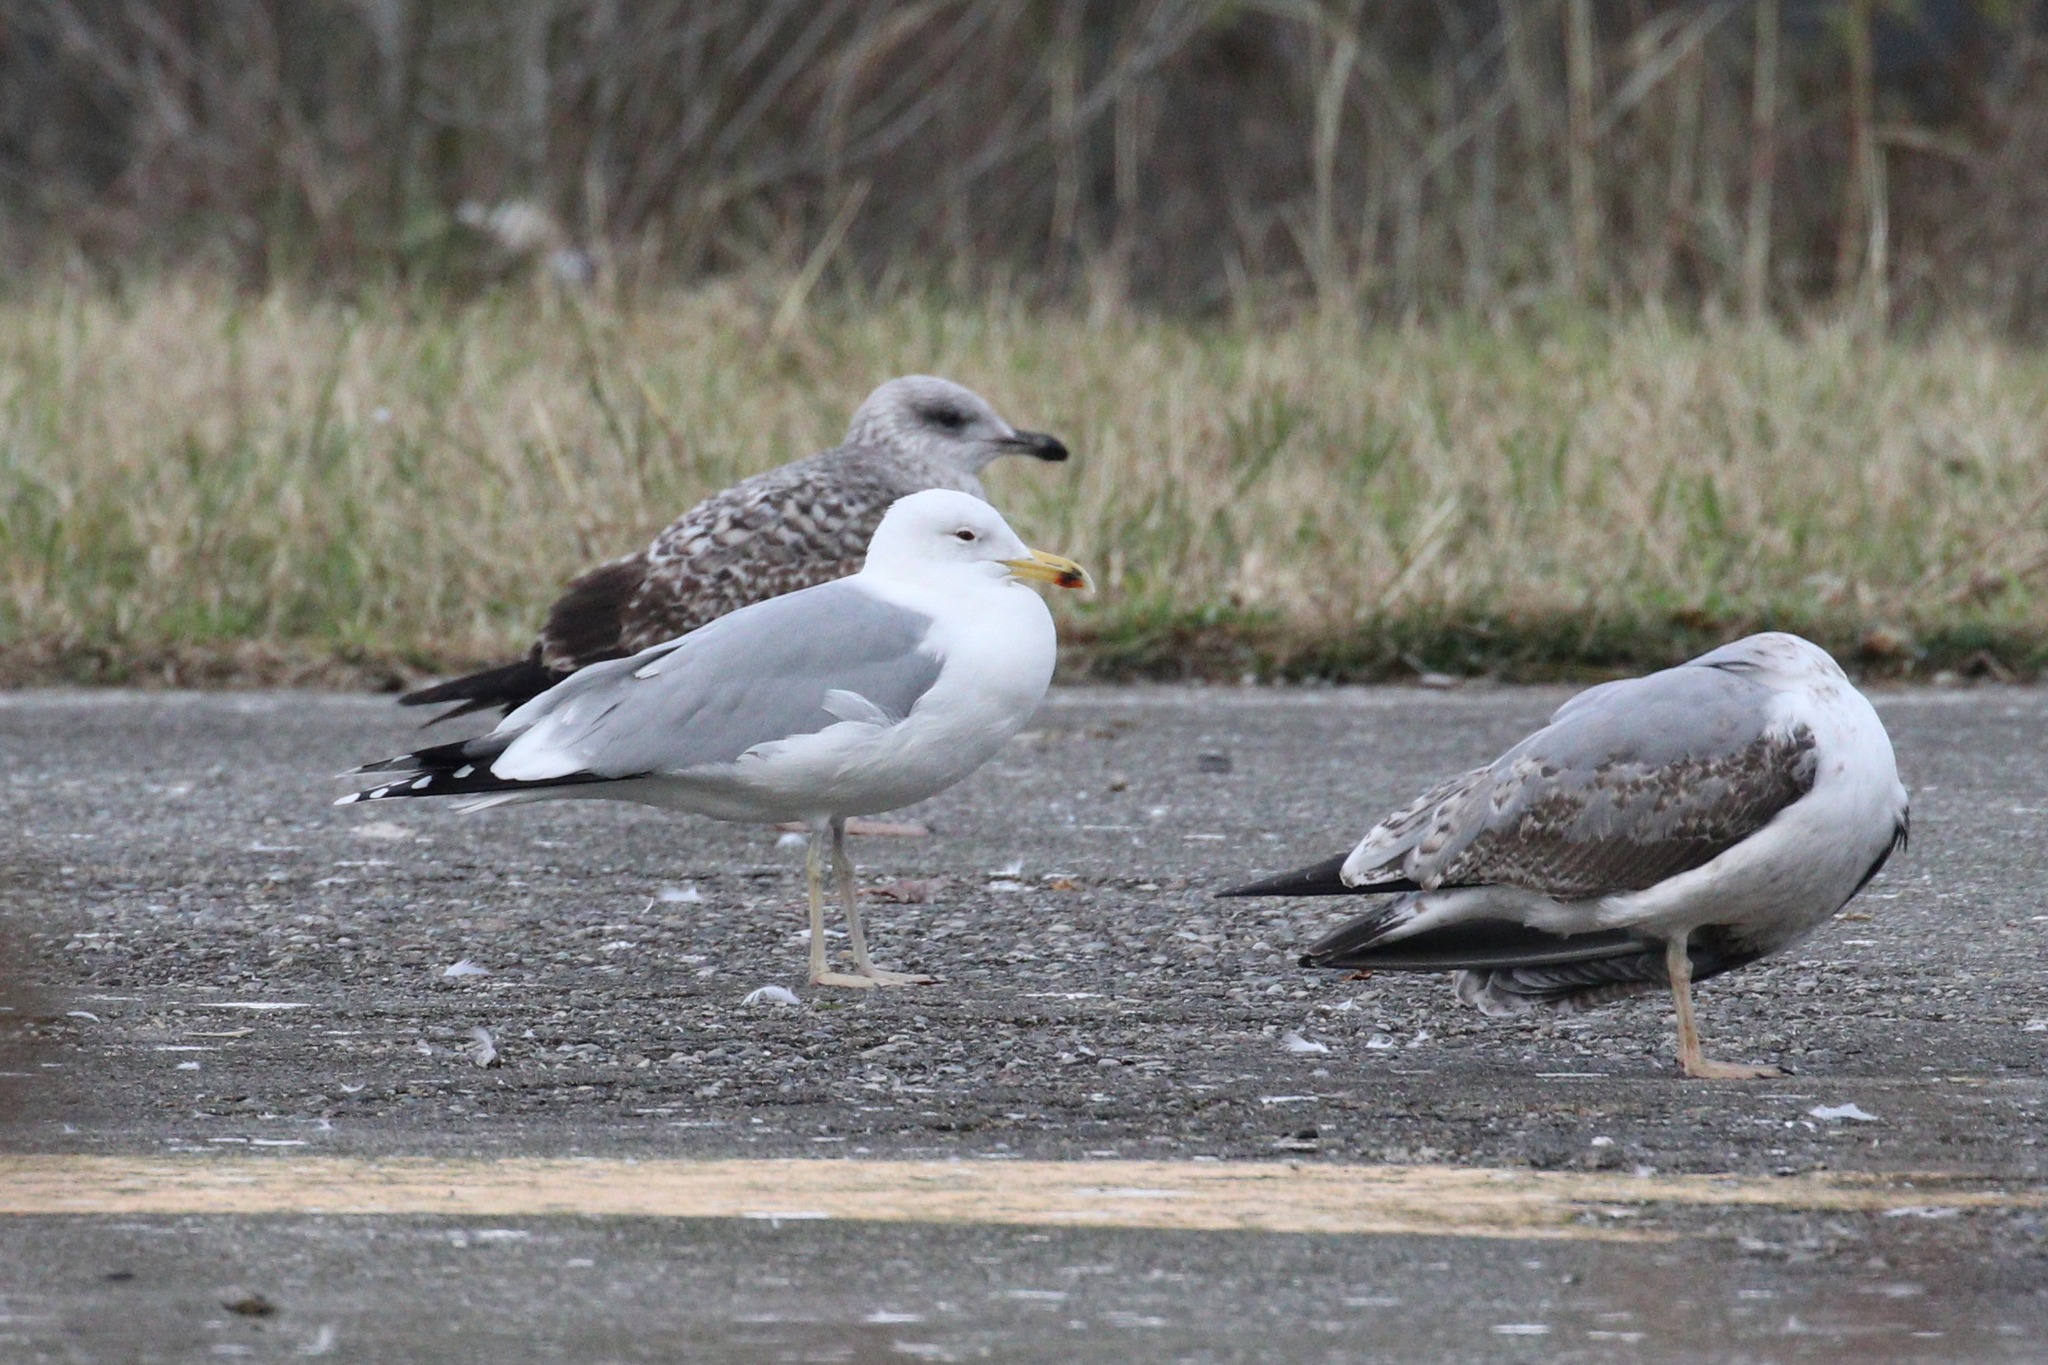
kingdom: Animalia
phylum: Chordata
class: Aves
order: Charadriiformes
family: Laridae
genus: Larus
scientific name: Larus cachinnans
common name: Caspian gull
